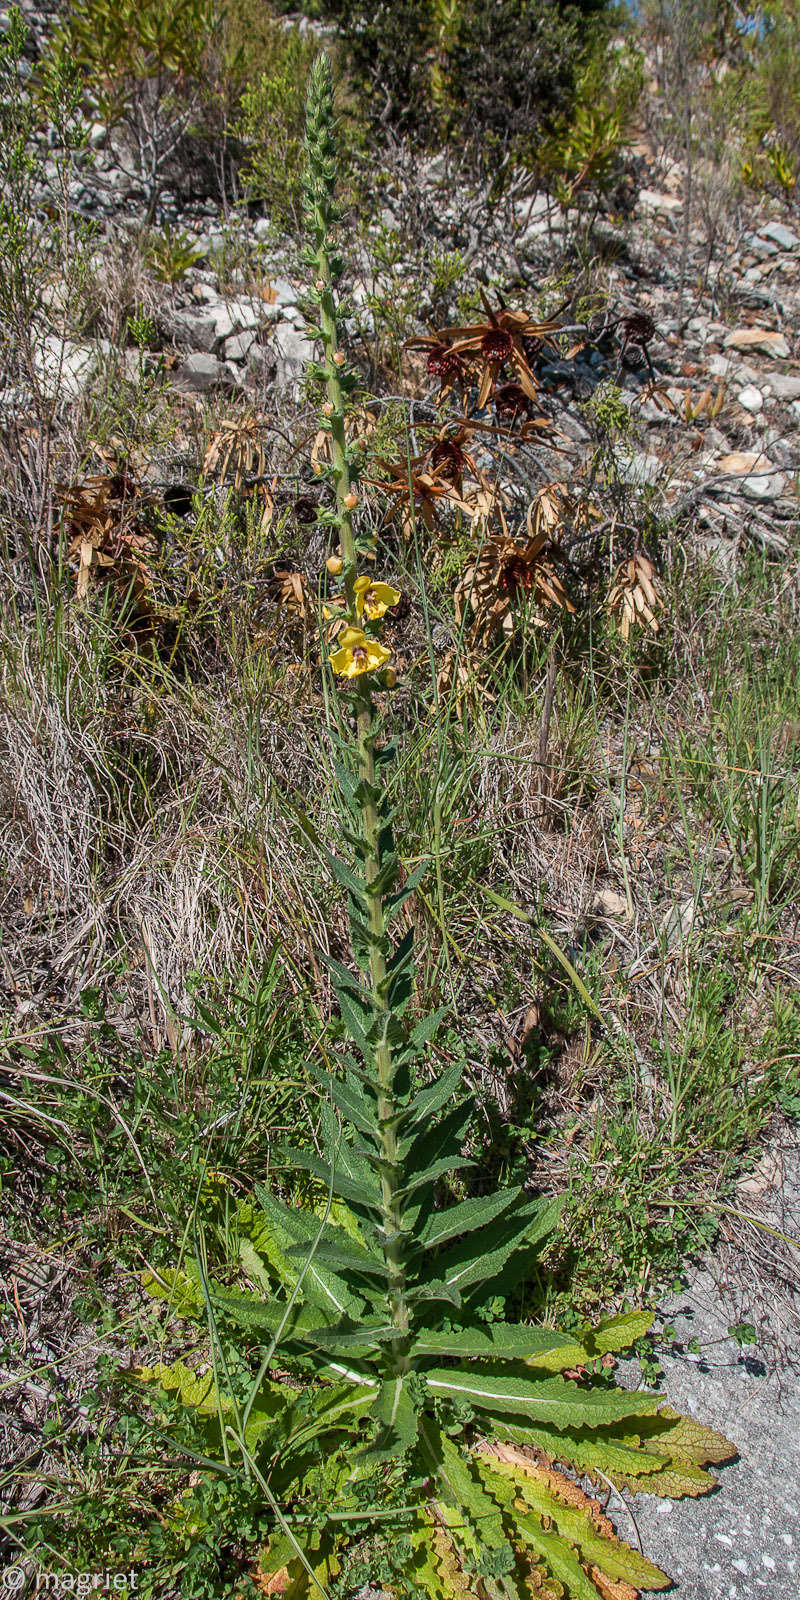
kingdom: Plantae
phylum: Tracheophyta
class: Magnoliopsida
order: Lamiales
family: Scrophulariaceae
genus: Verbascum
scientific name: Verbascum virgatum
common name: Twiggy mullein
